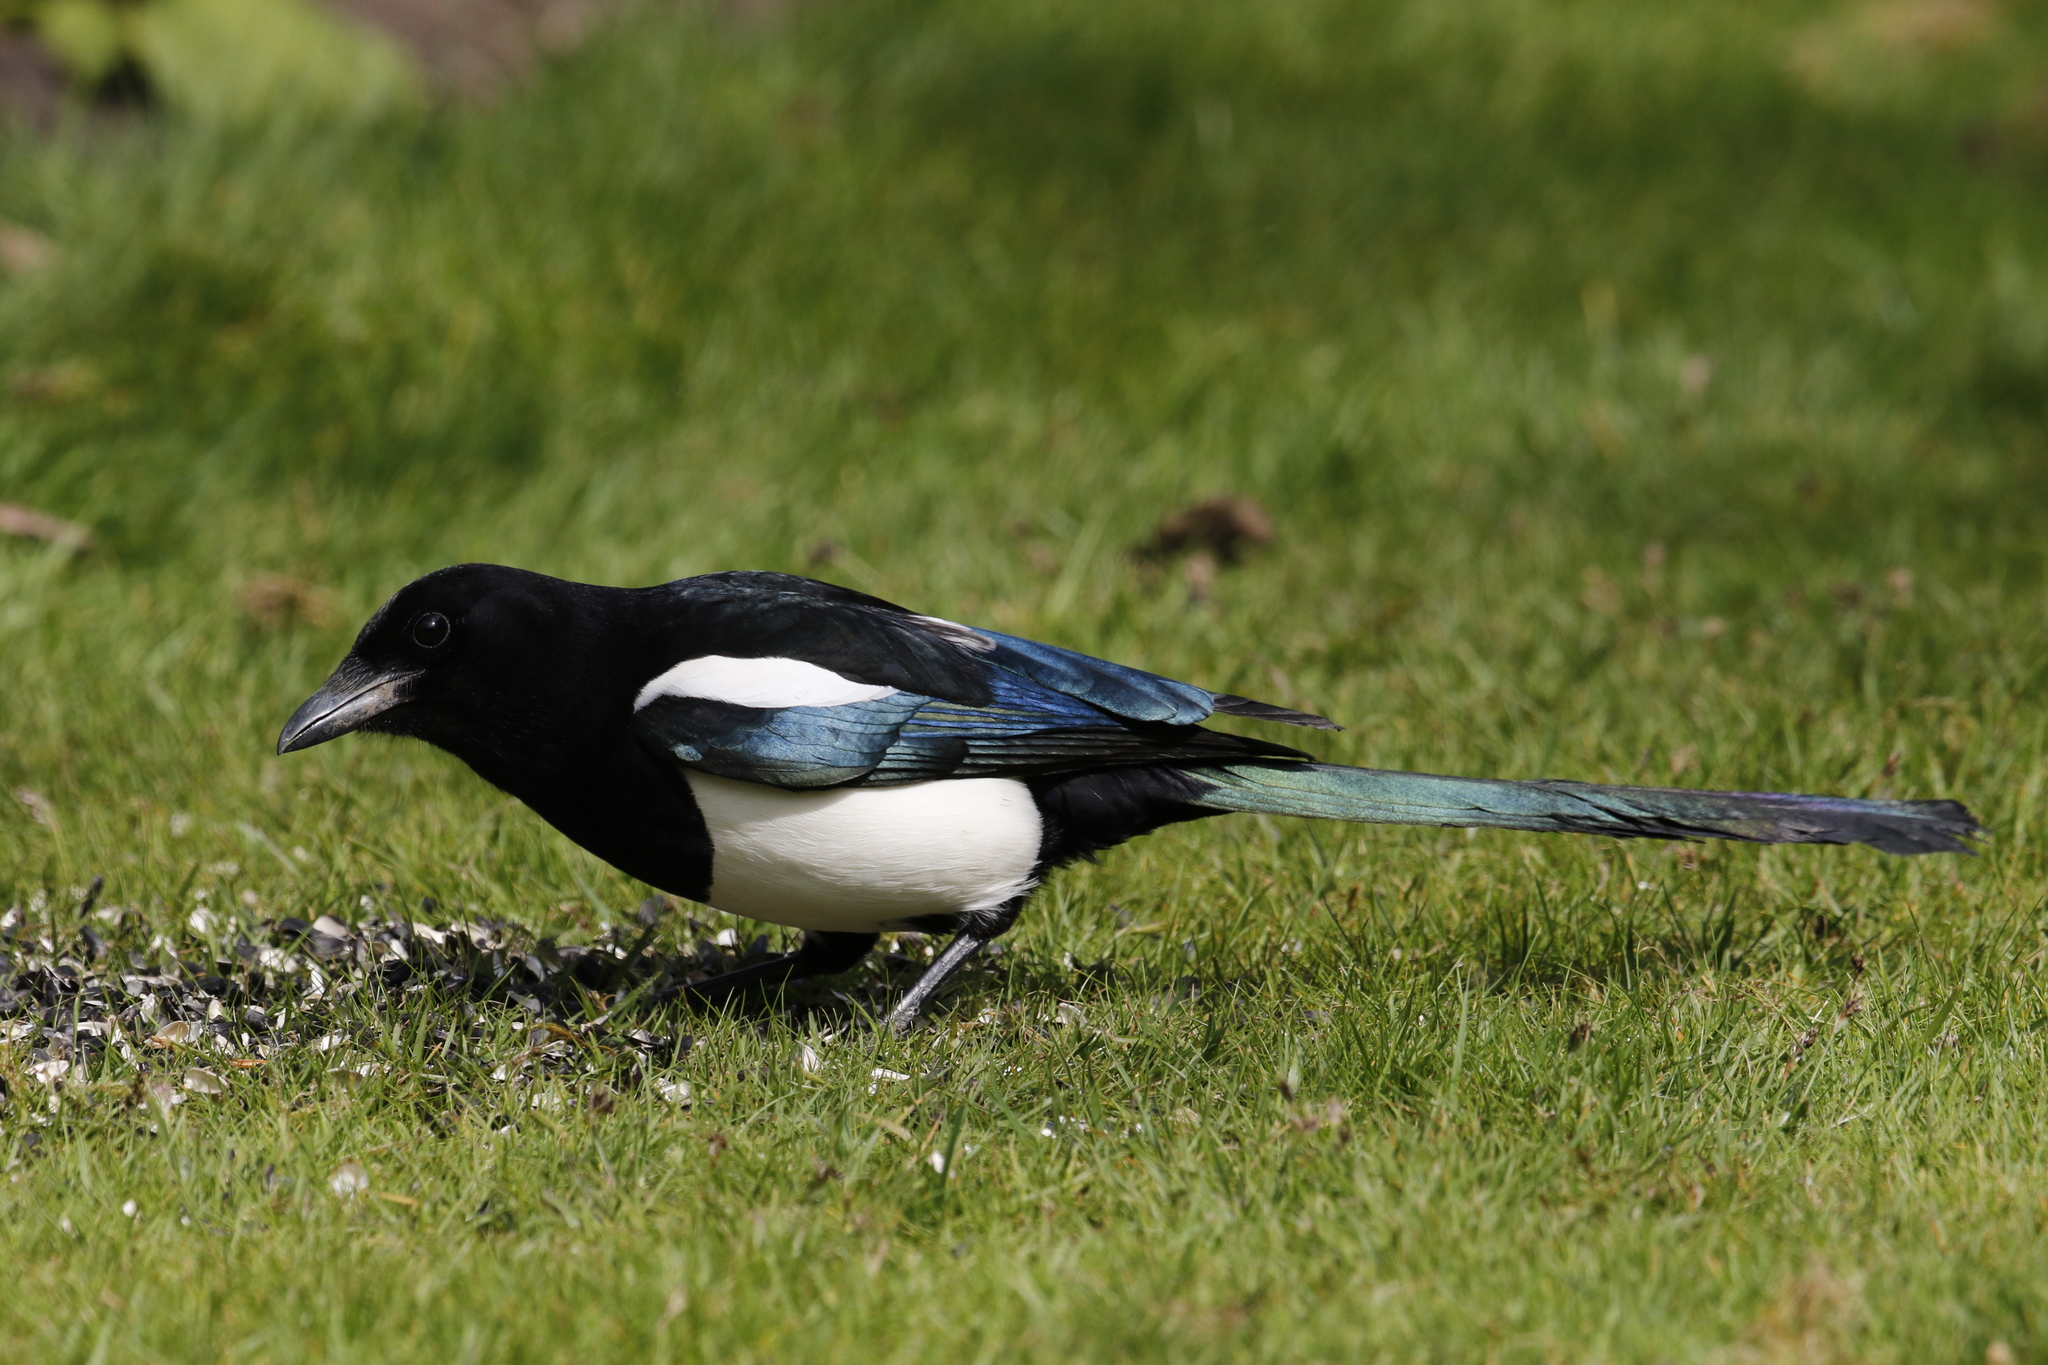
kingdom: Animalia
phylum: Chordata
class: Aves
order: Passeriformes
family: Corvidae
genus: Pica
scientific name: Pica pica
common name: Eurasian magpie
